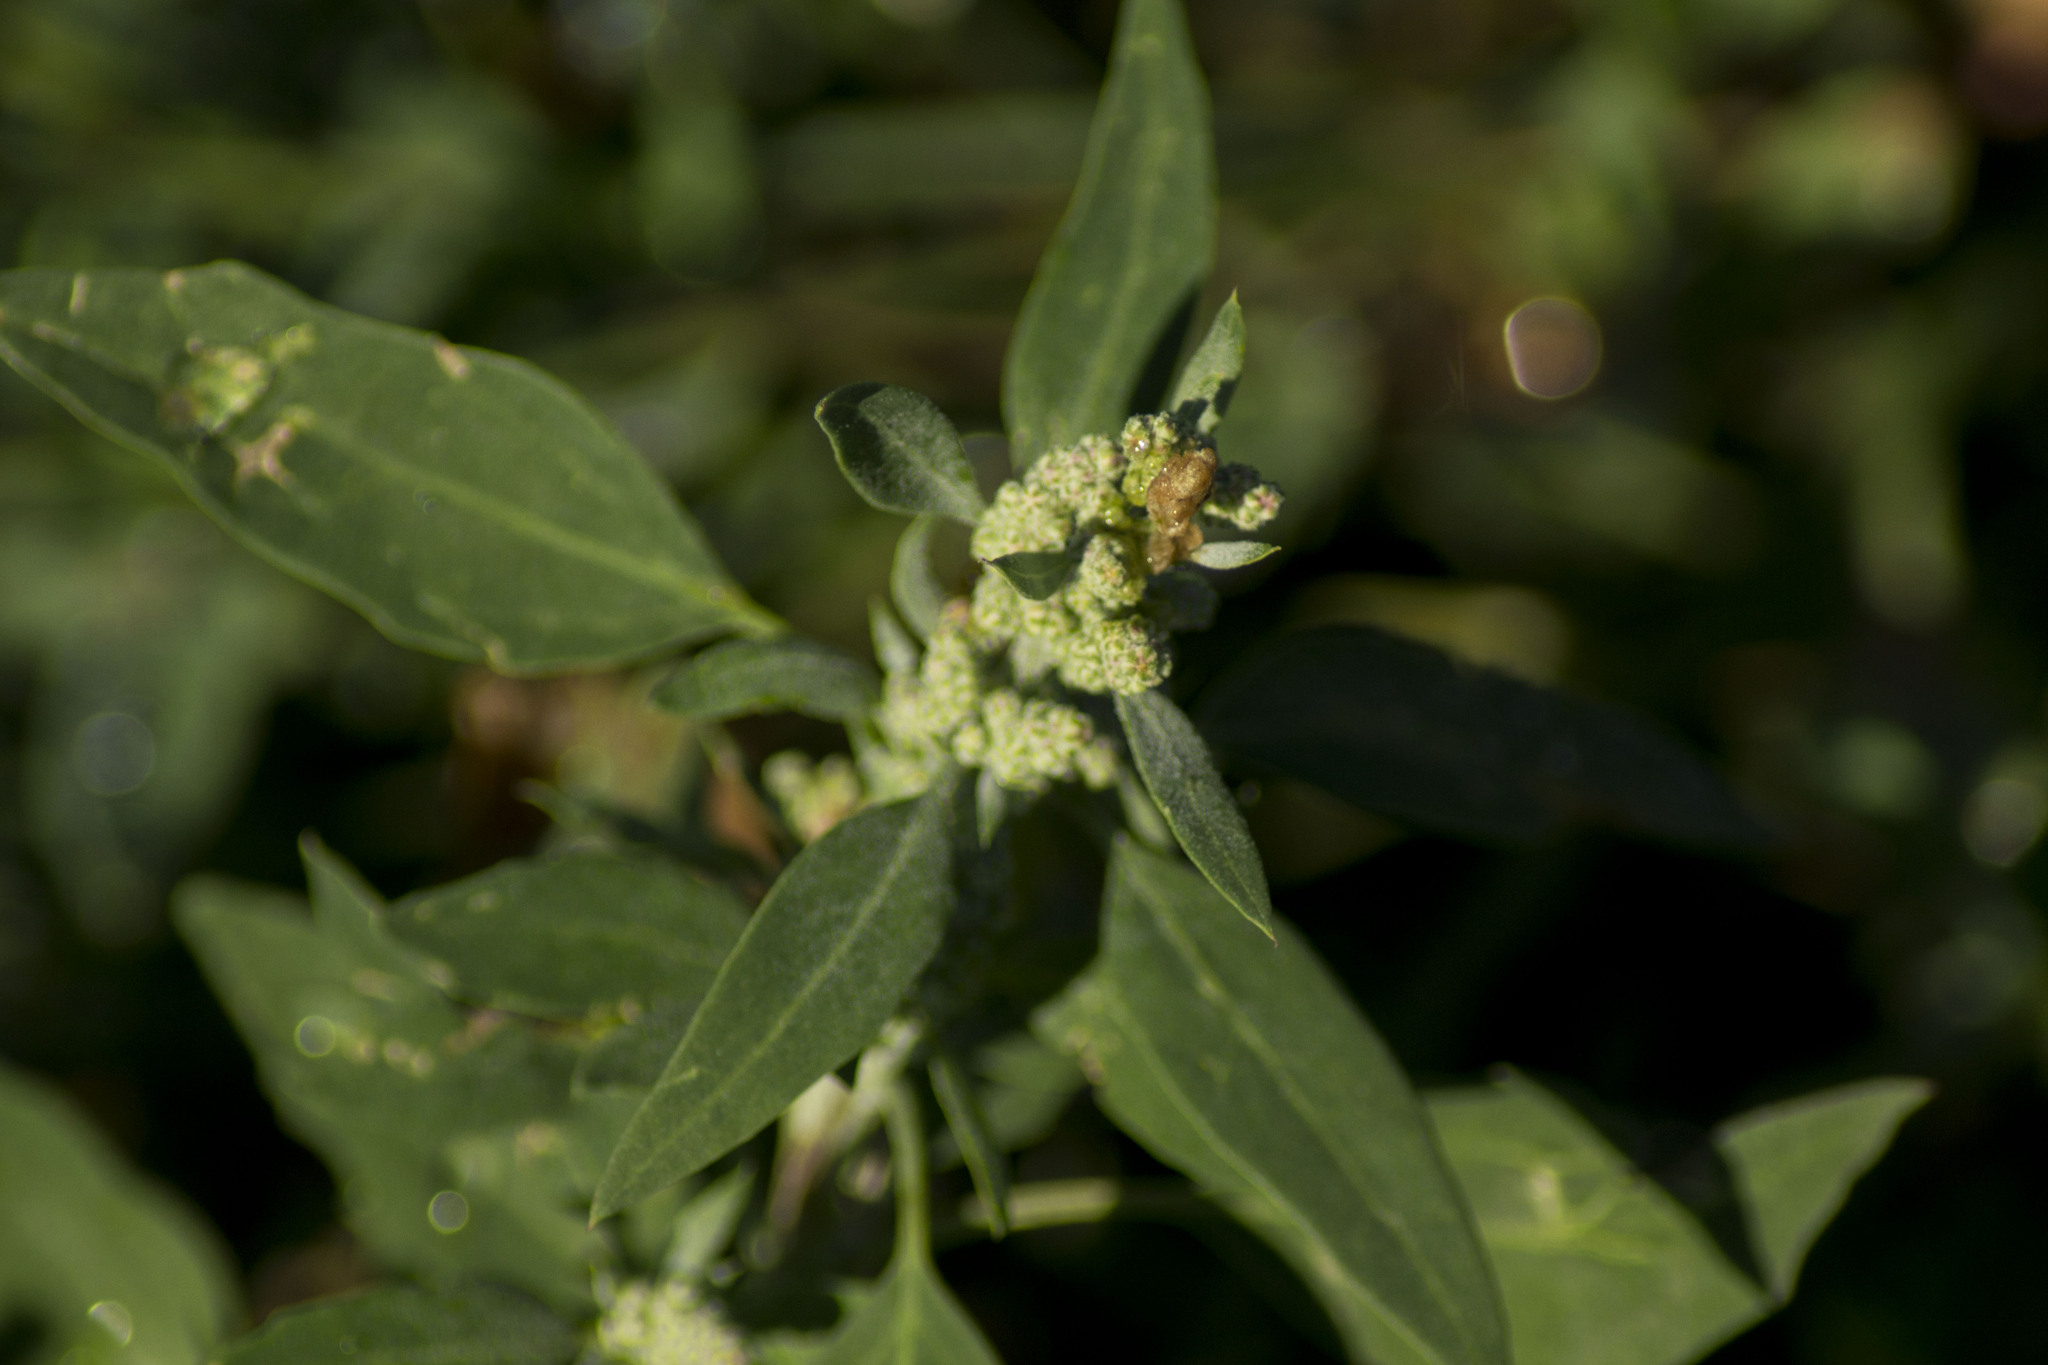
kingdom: Plantae
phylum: Tracheophyta
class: Magnoliopsida
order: Caryophyllales
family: Amaranthaceae
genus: Chenopodium
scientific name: Chenopodium album
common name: Fat-hen
